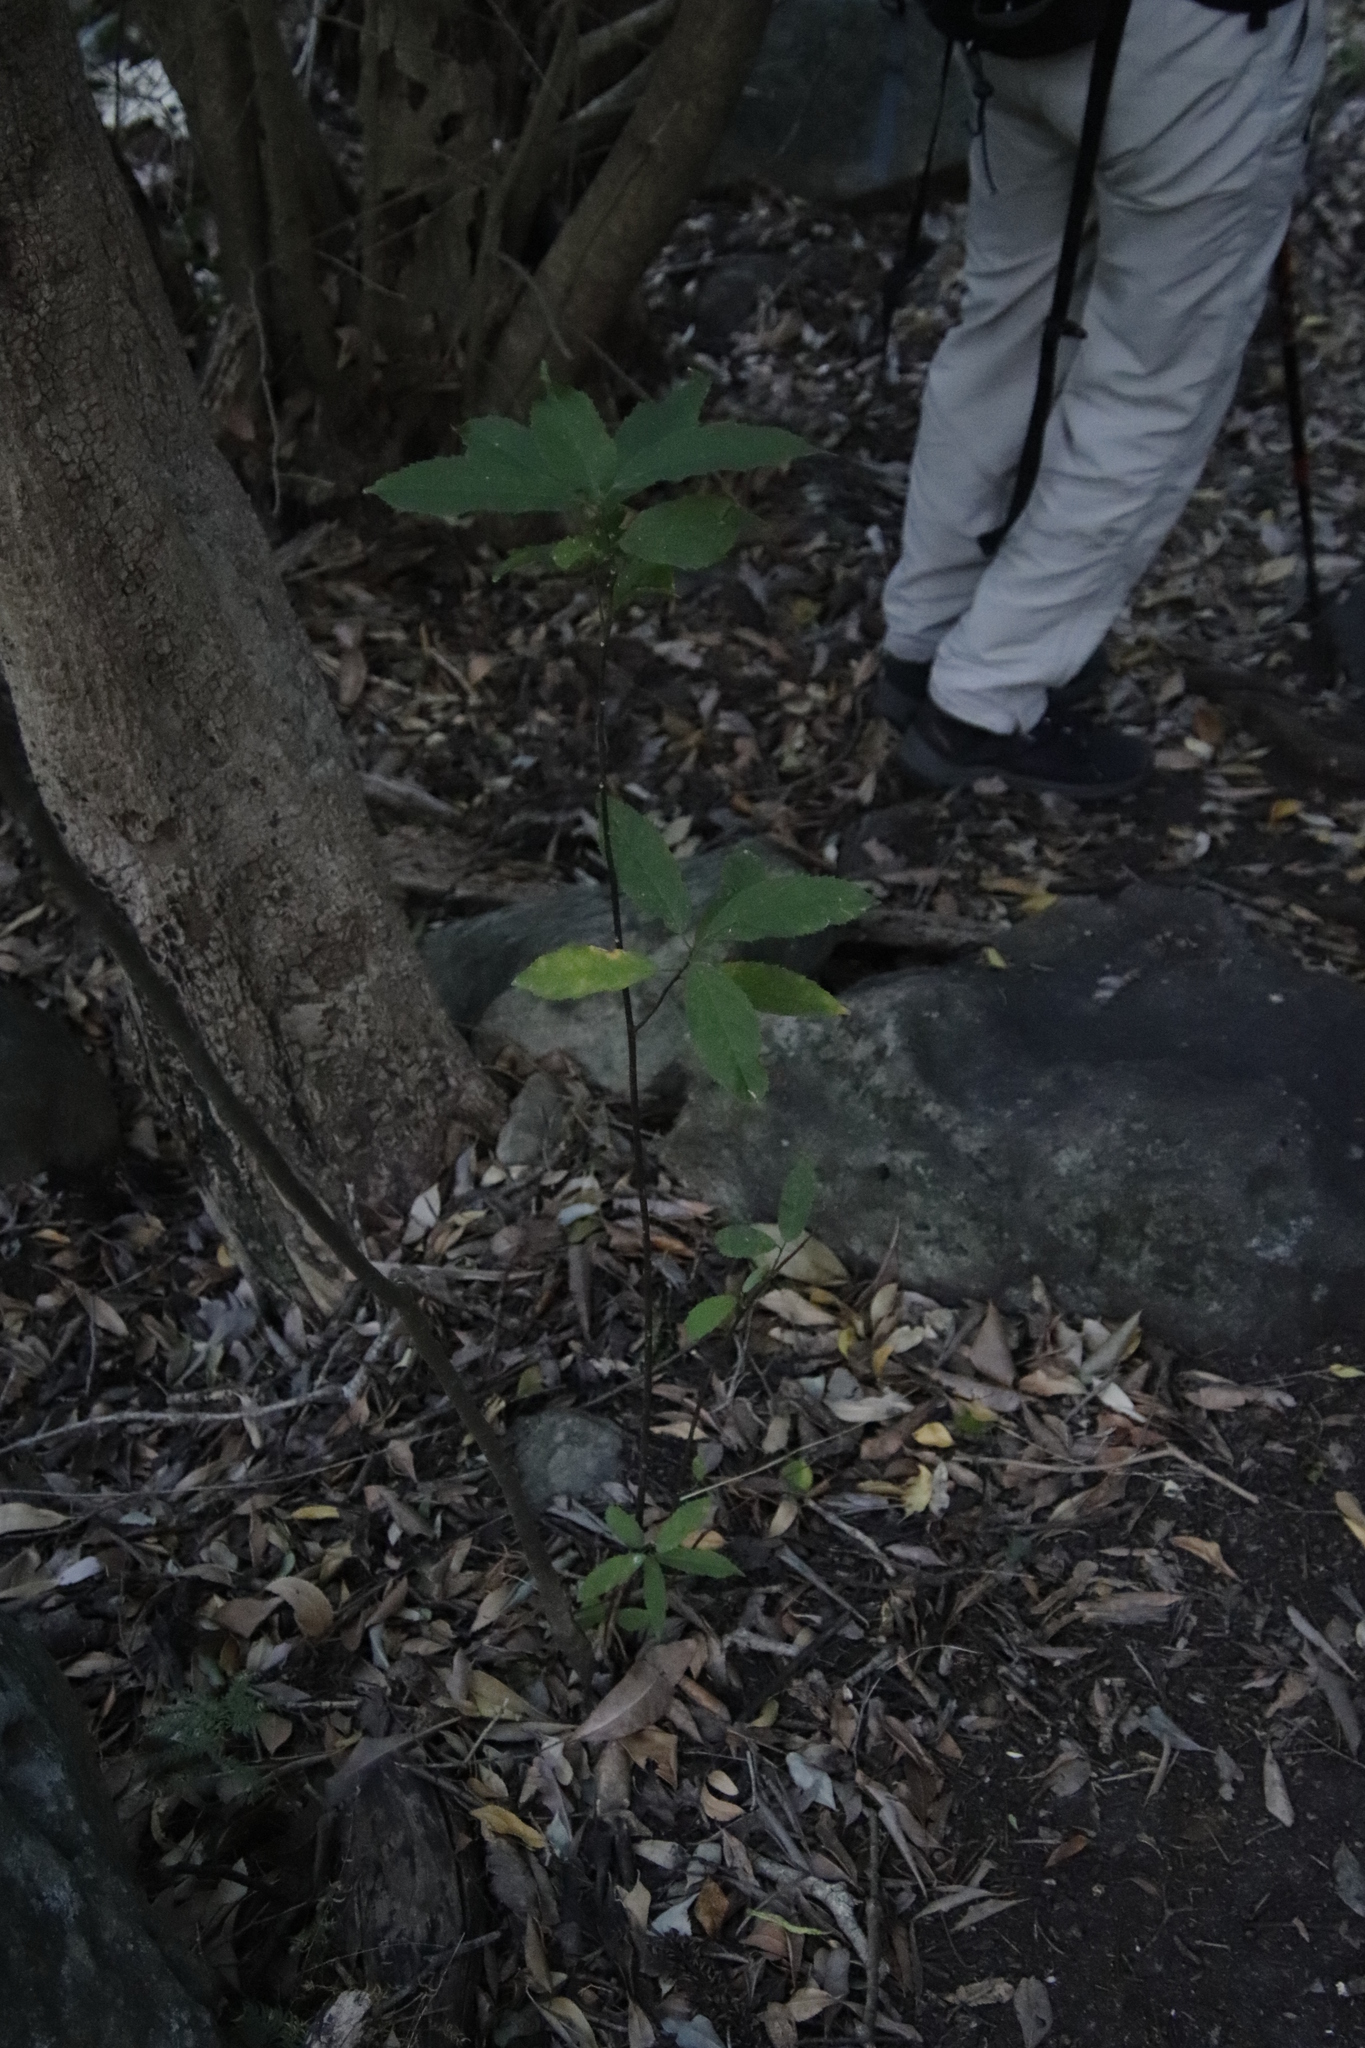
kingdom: Plantae
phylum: Tracheophyta
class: Magnoliopsida
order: Malpighiales
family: Achariaceae
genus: Kiggelaria
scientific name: Kiggelaria africana
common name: Wild peach
